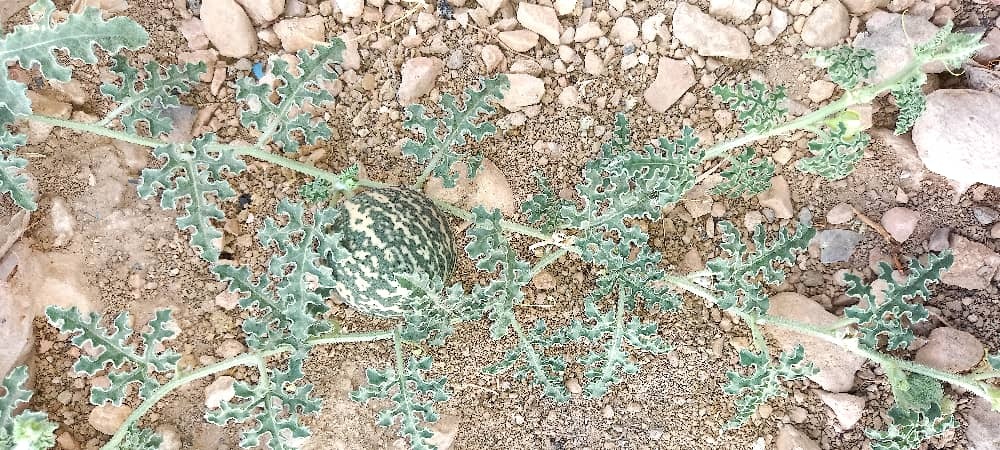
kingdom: Plantae
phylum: Tracheophyta
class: Magnoliopsida
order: Cucurbitales
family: Cucurbitaceae
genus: Citrullus
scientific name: Citrullus colocynthis
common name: Colocynth
